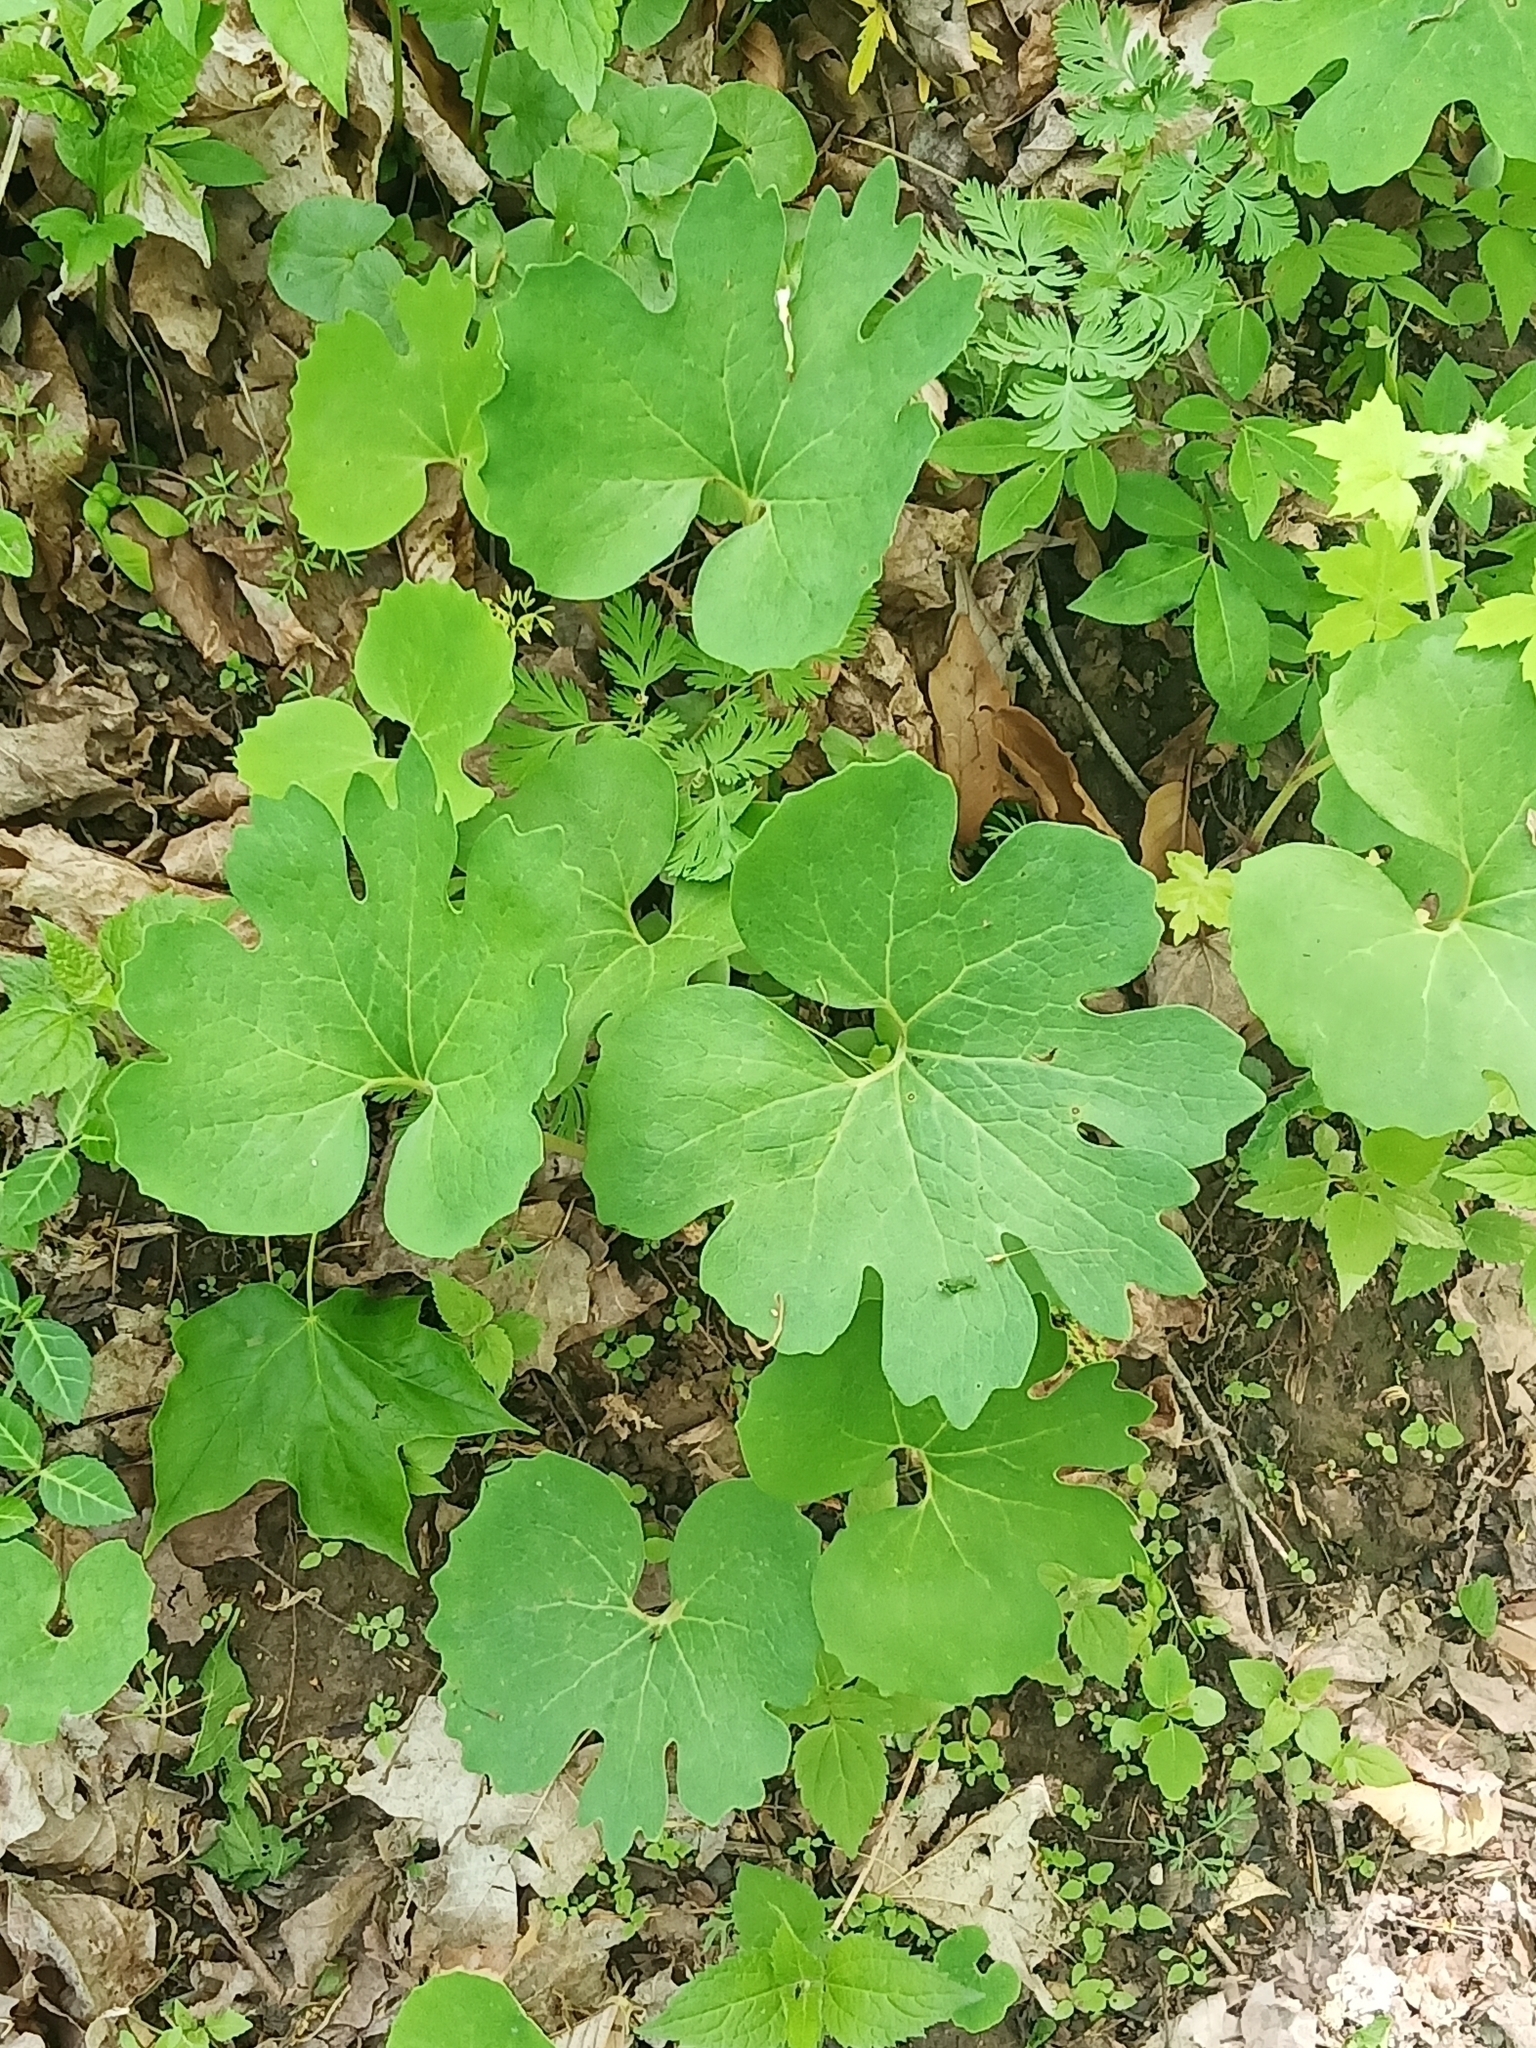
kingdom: Plantae
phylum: Tracheophyta
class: Magnoliopsida
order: Ranunculales
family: Papaveraceae
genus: Sanguinaria
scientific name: Sanguinaria canadensis
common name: Bloodroot
